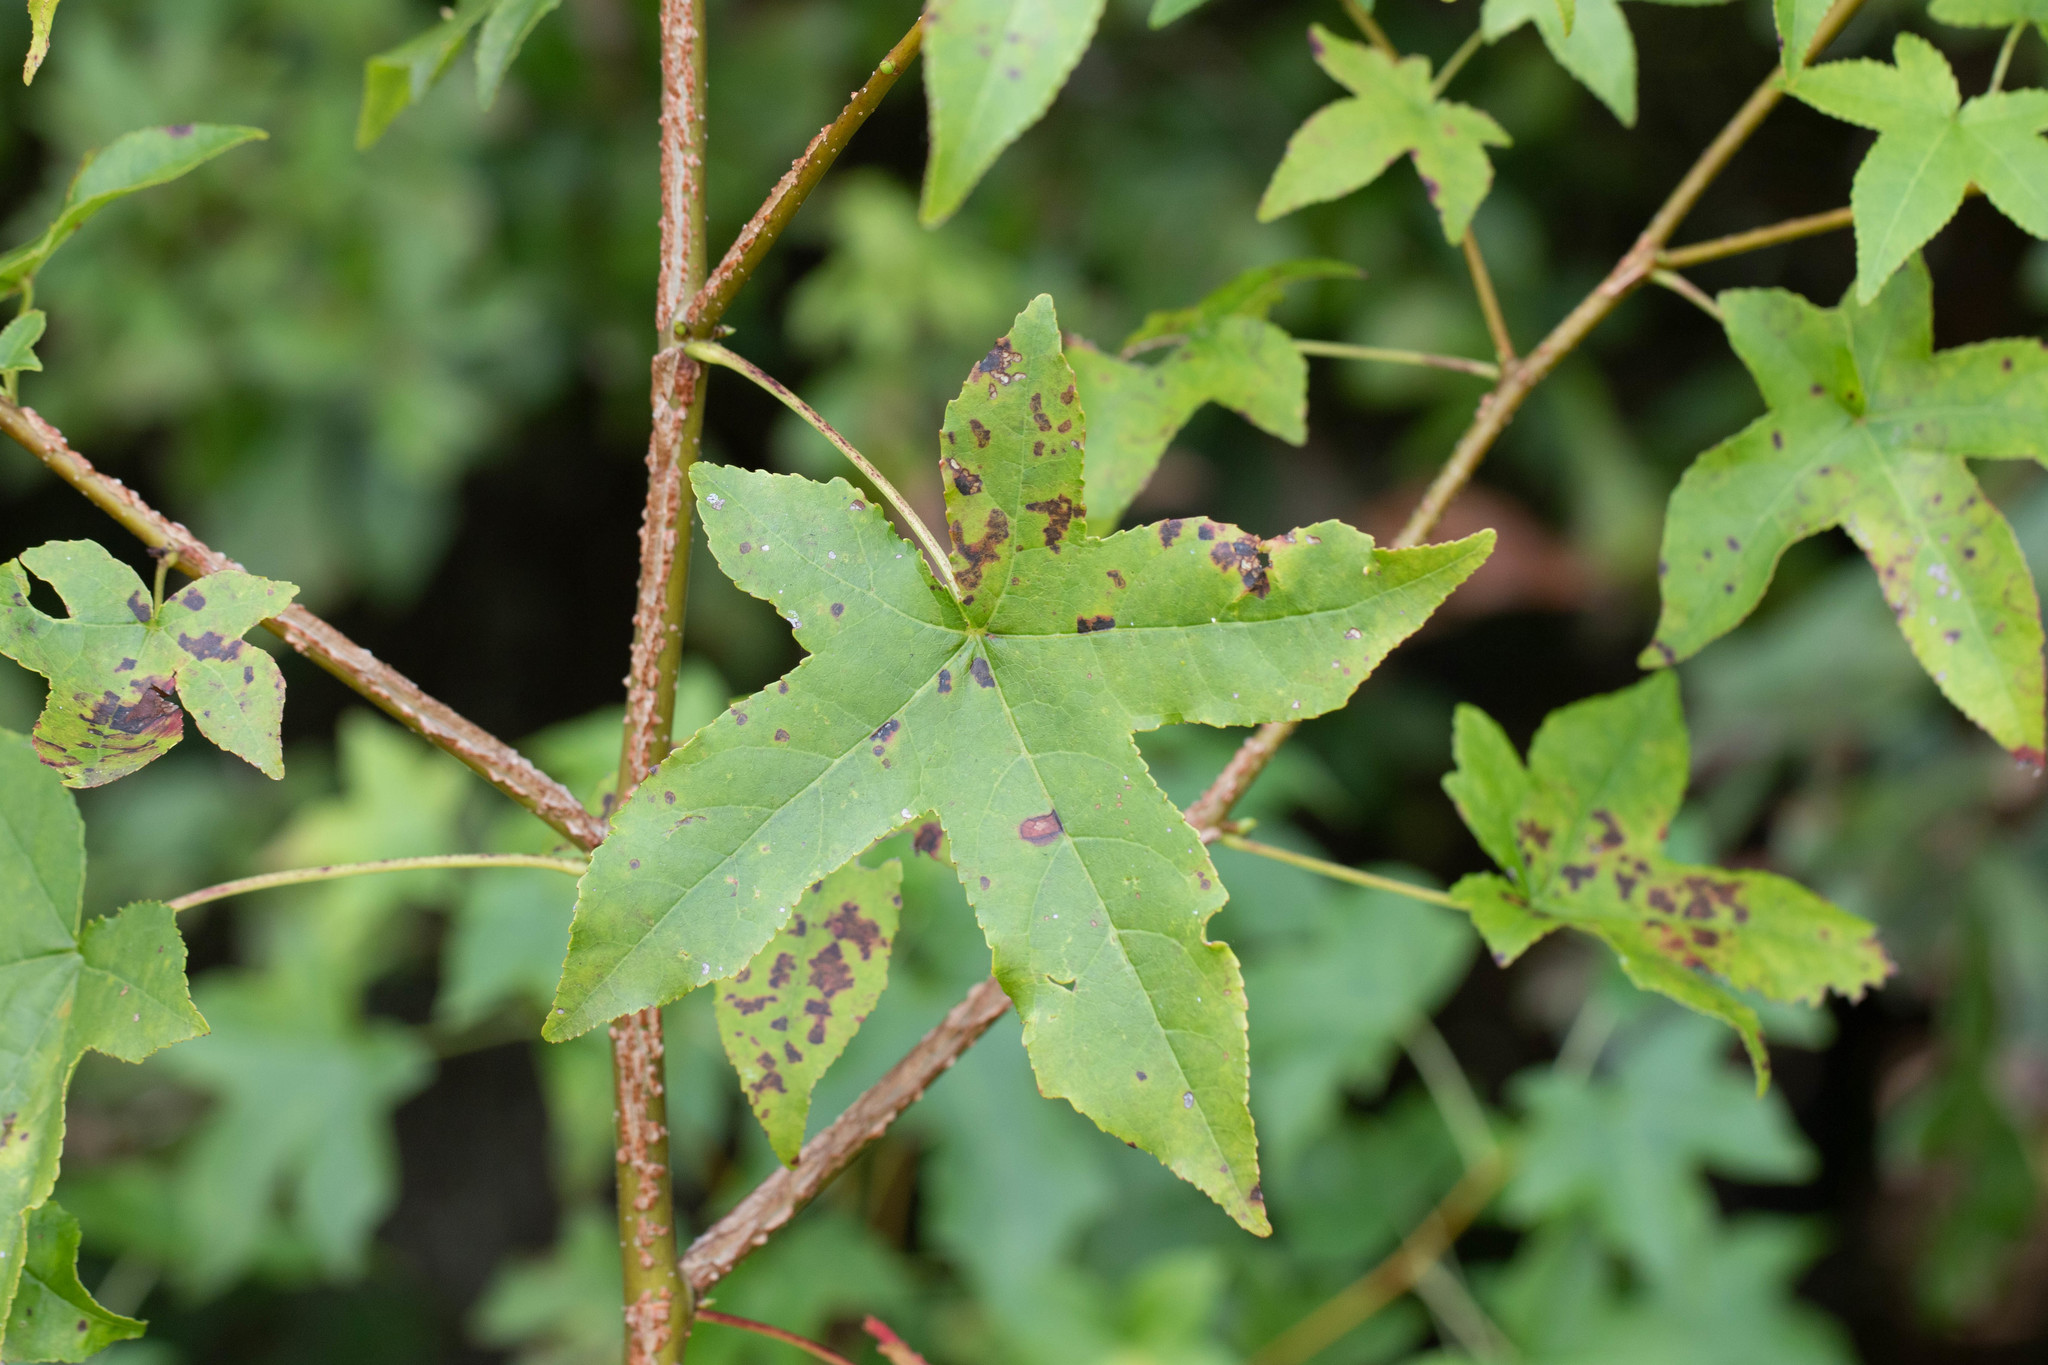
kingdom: Plantae
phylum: Tracheophyta
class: Magnoliopsida
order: Saxifragales
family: Altingiaceae
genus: Liquidambar
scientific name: Liquidambar styraciflua
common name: Sweet gum
